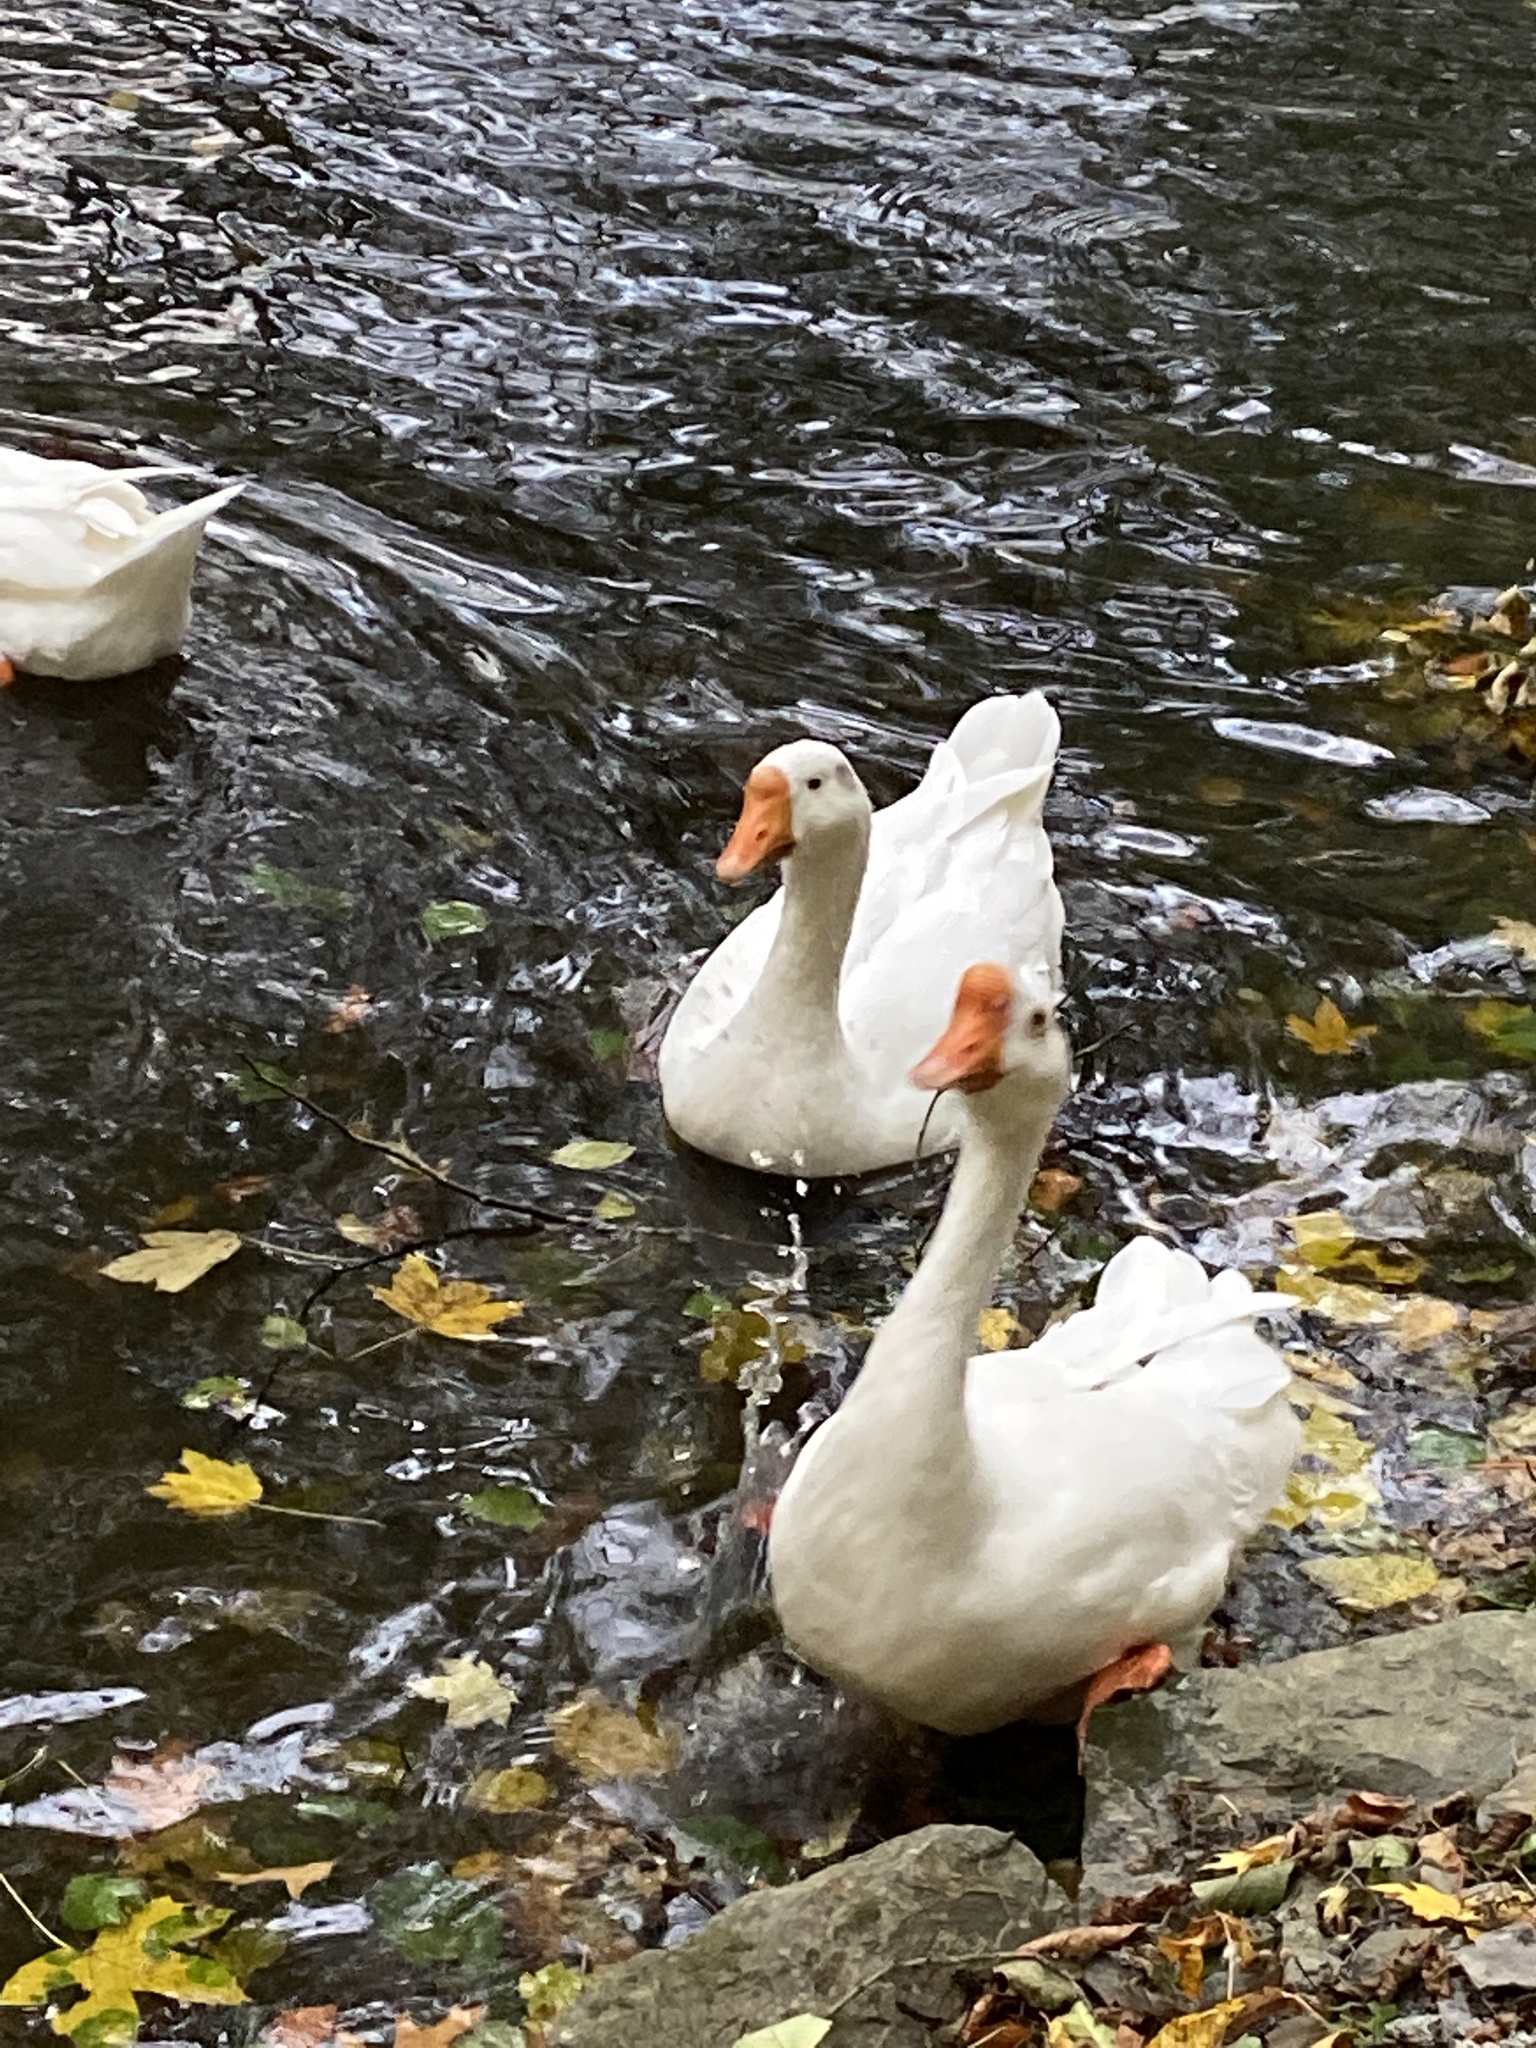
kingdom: Animalia
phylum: Chordata
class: Aves
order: Anseriformes
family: Anatidae
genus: Anser
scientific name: Anser
